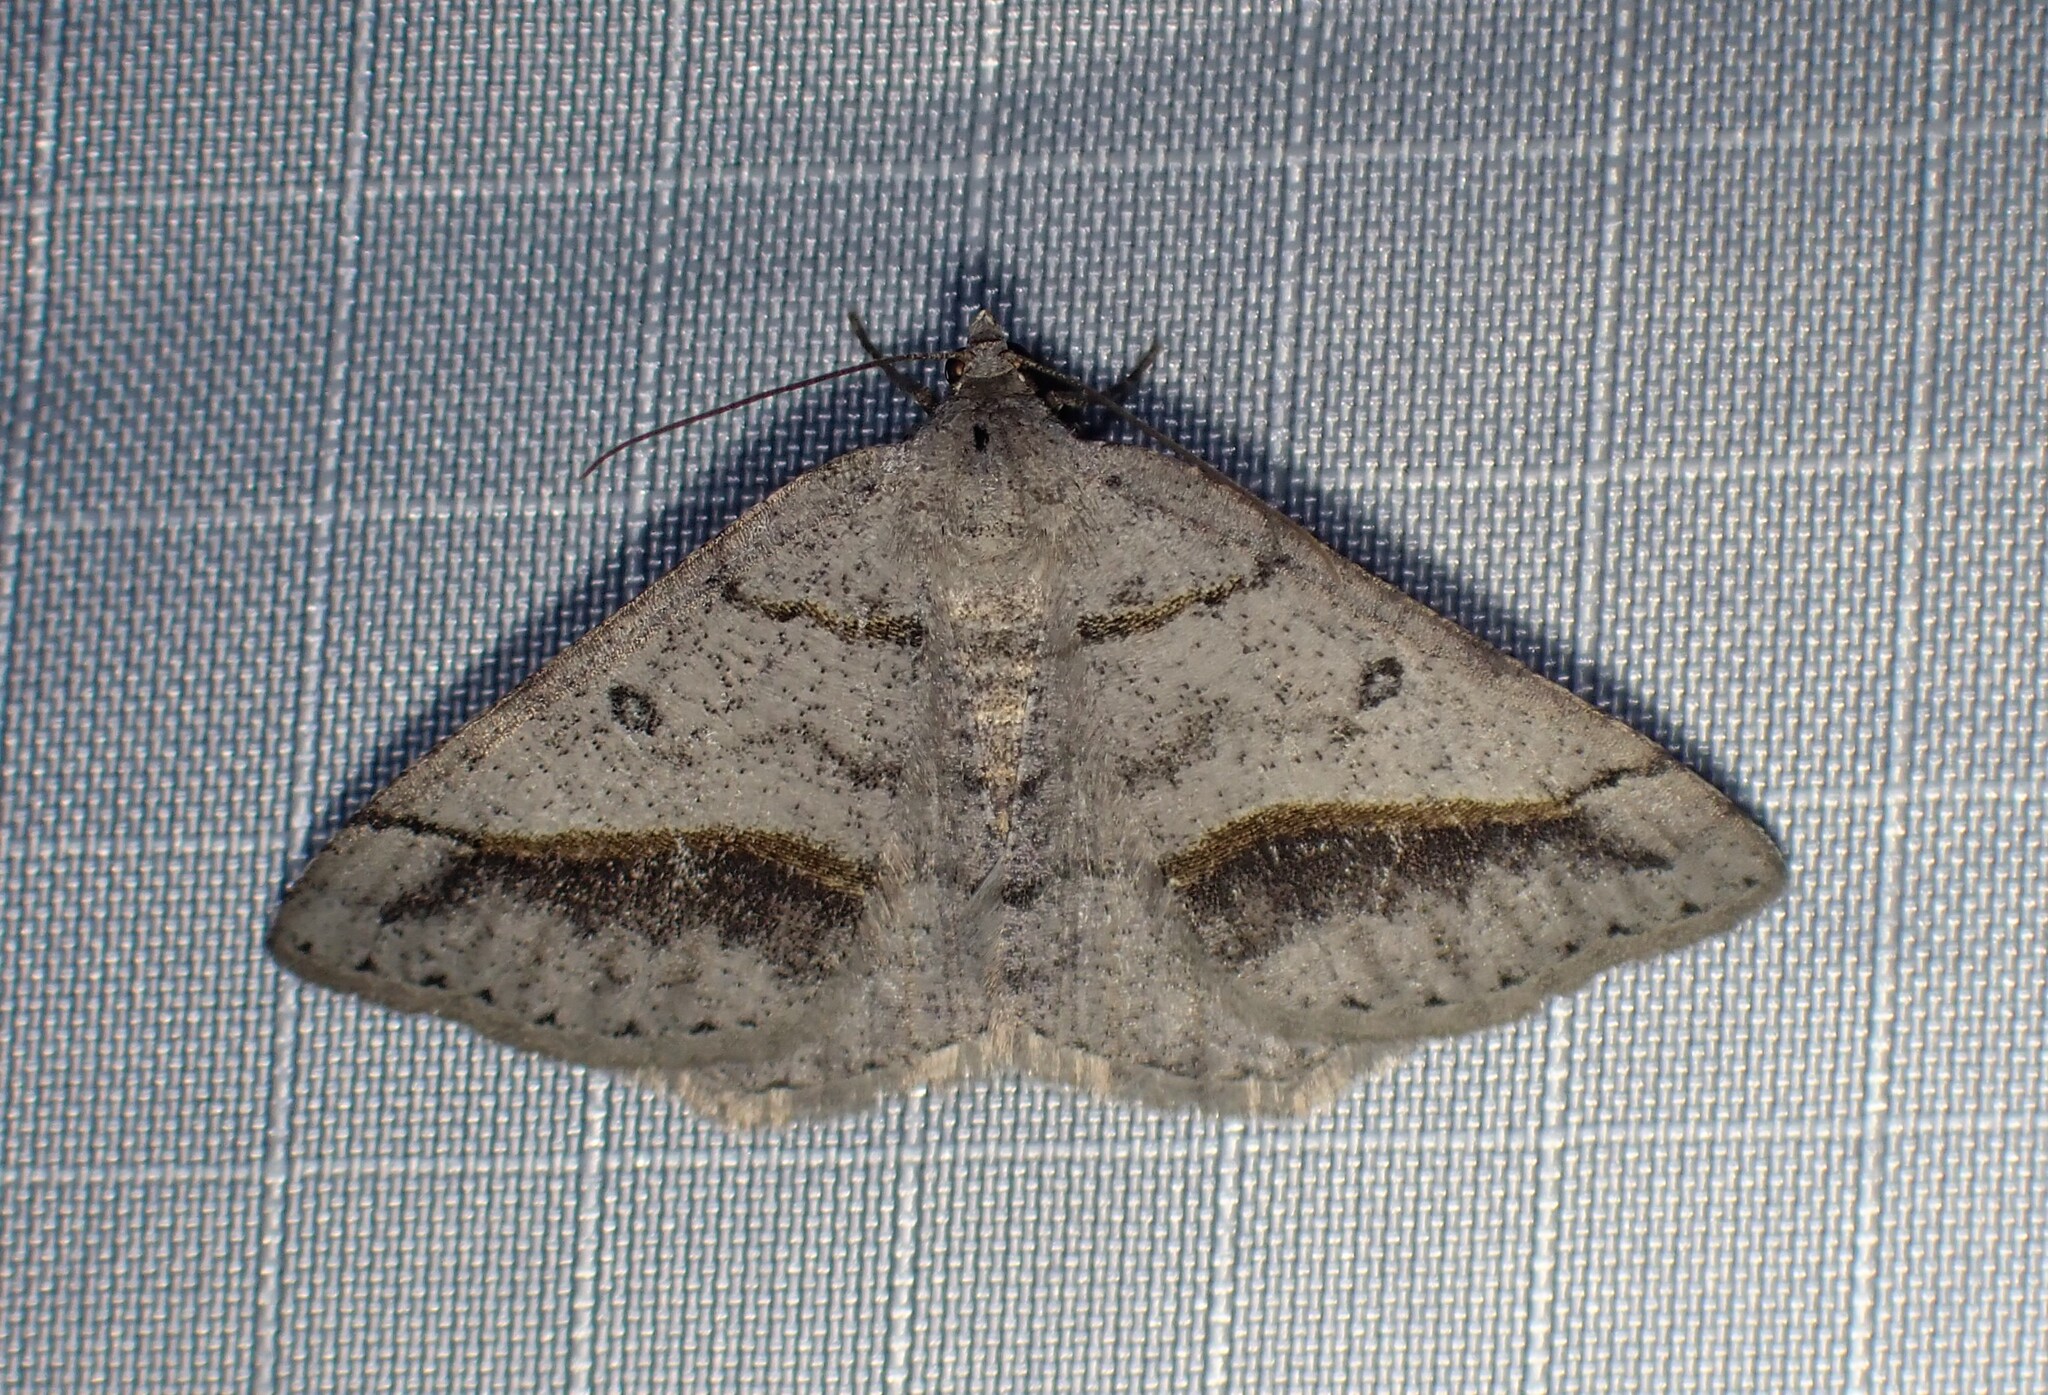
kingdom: Animalia
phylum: Arthropoda
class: Insecta
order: Lepidoptera
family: Geometridae
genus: Digrammia
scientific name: Digrammia neptaria
